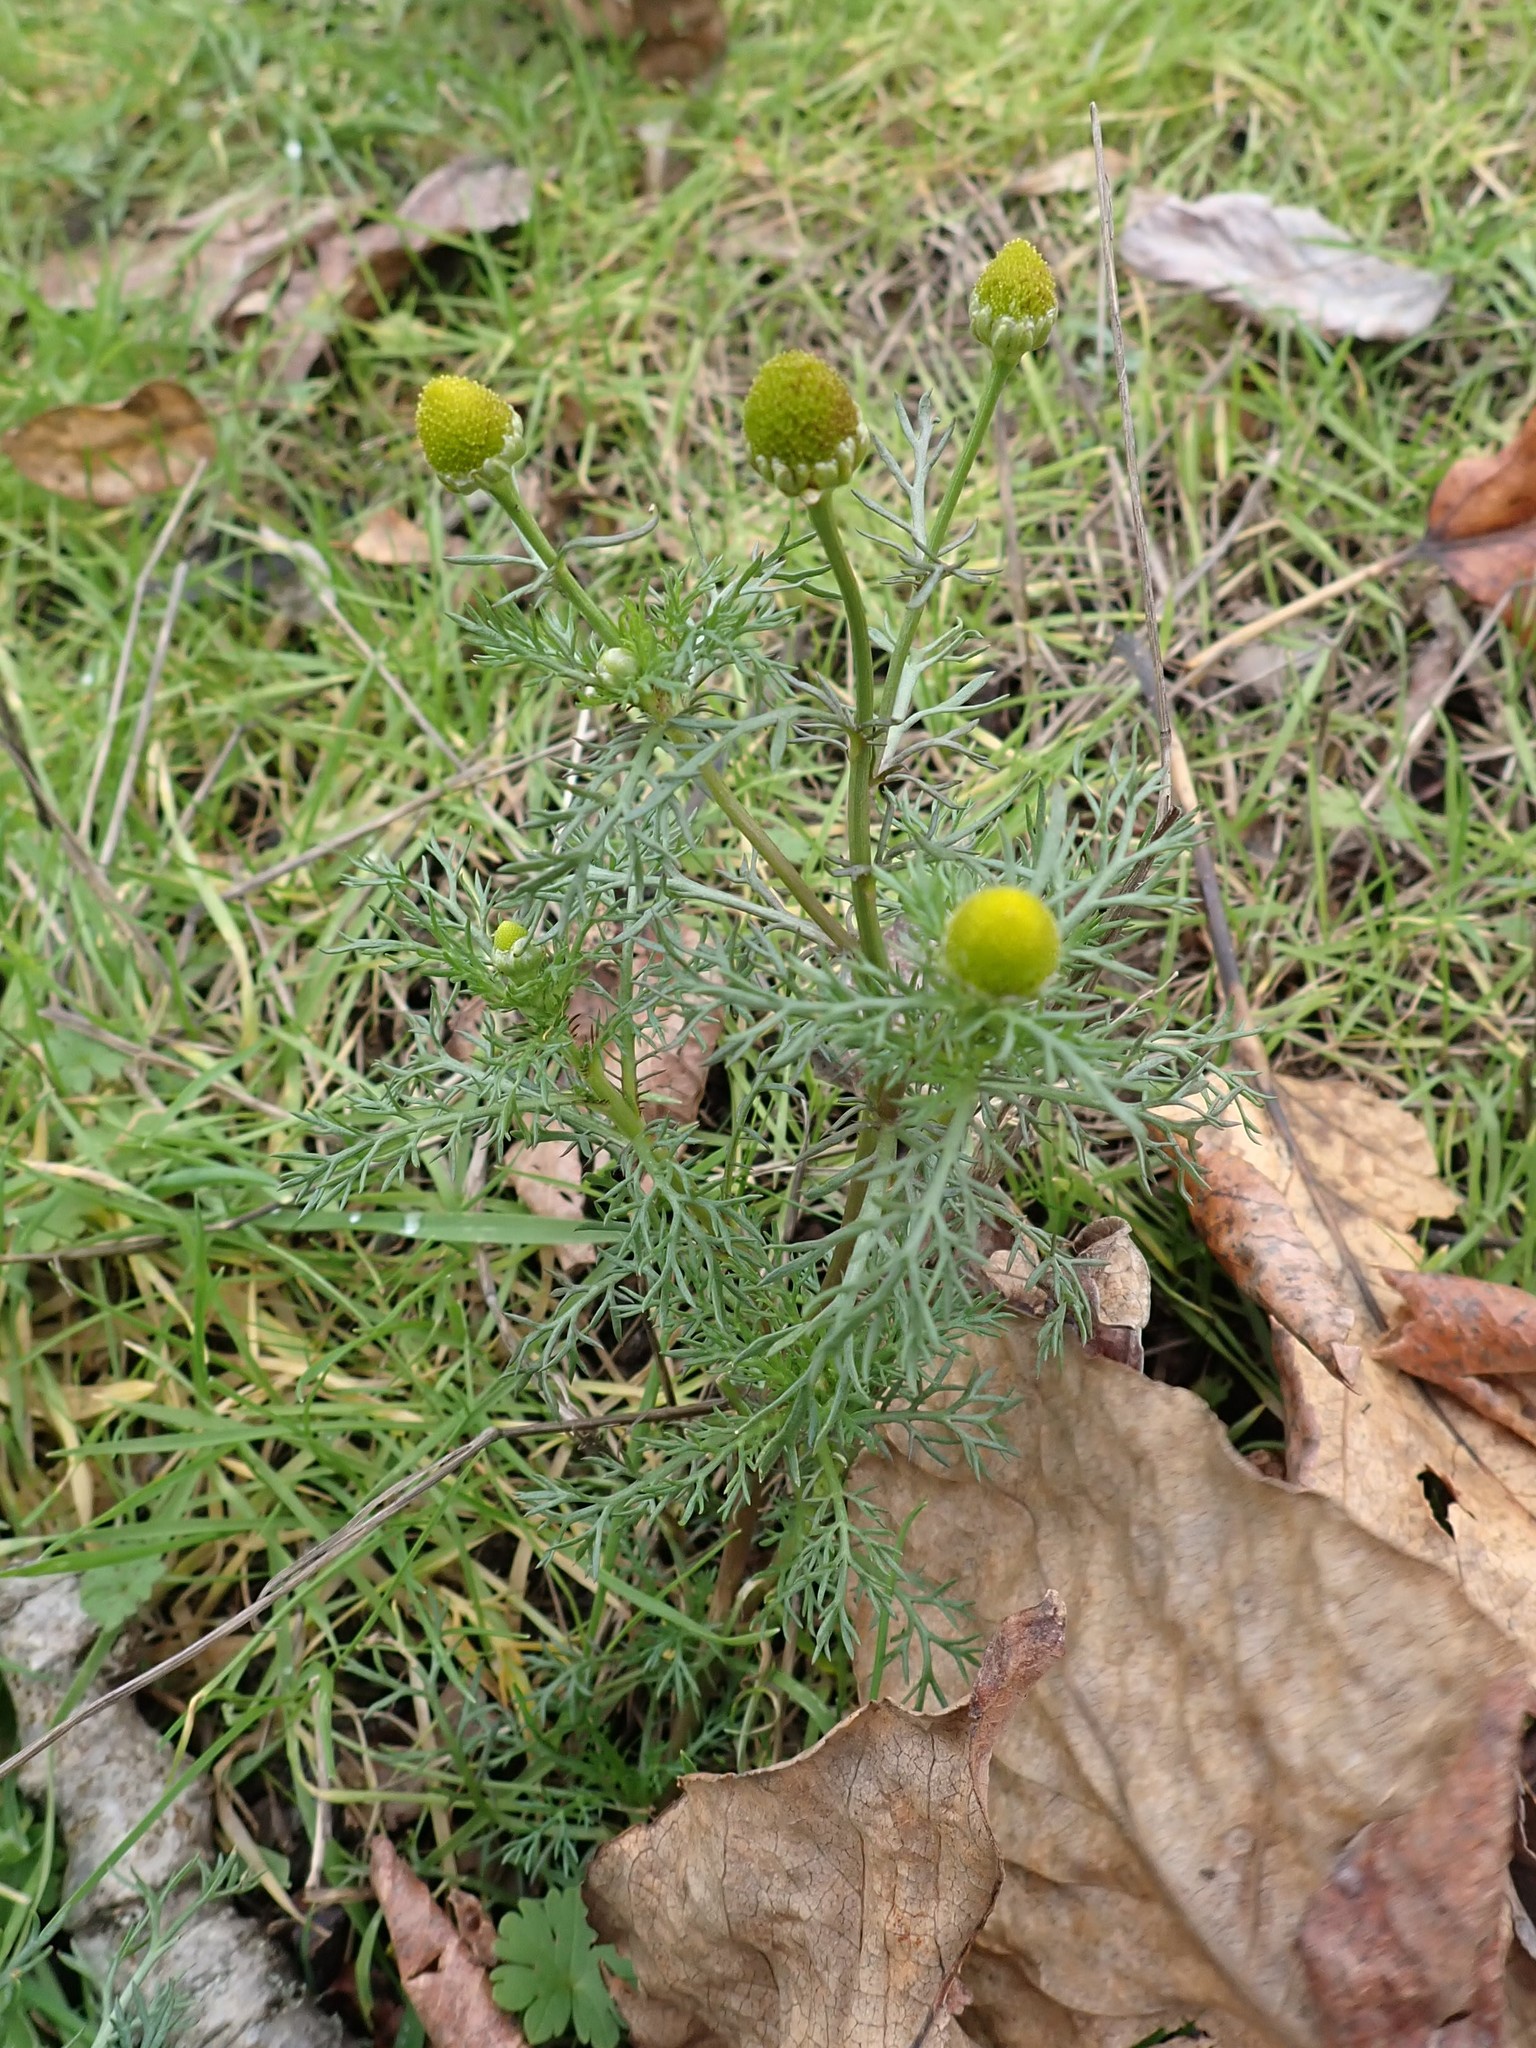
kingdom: Plantae
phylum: Tracheophyta
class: Magnoliopsida
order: Asterales
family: Asteraceae
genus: Matricaria
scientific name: Matricaria discoidea
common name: Disc mayweed
